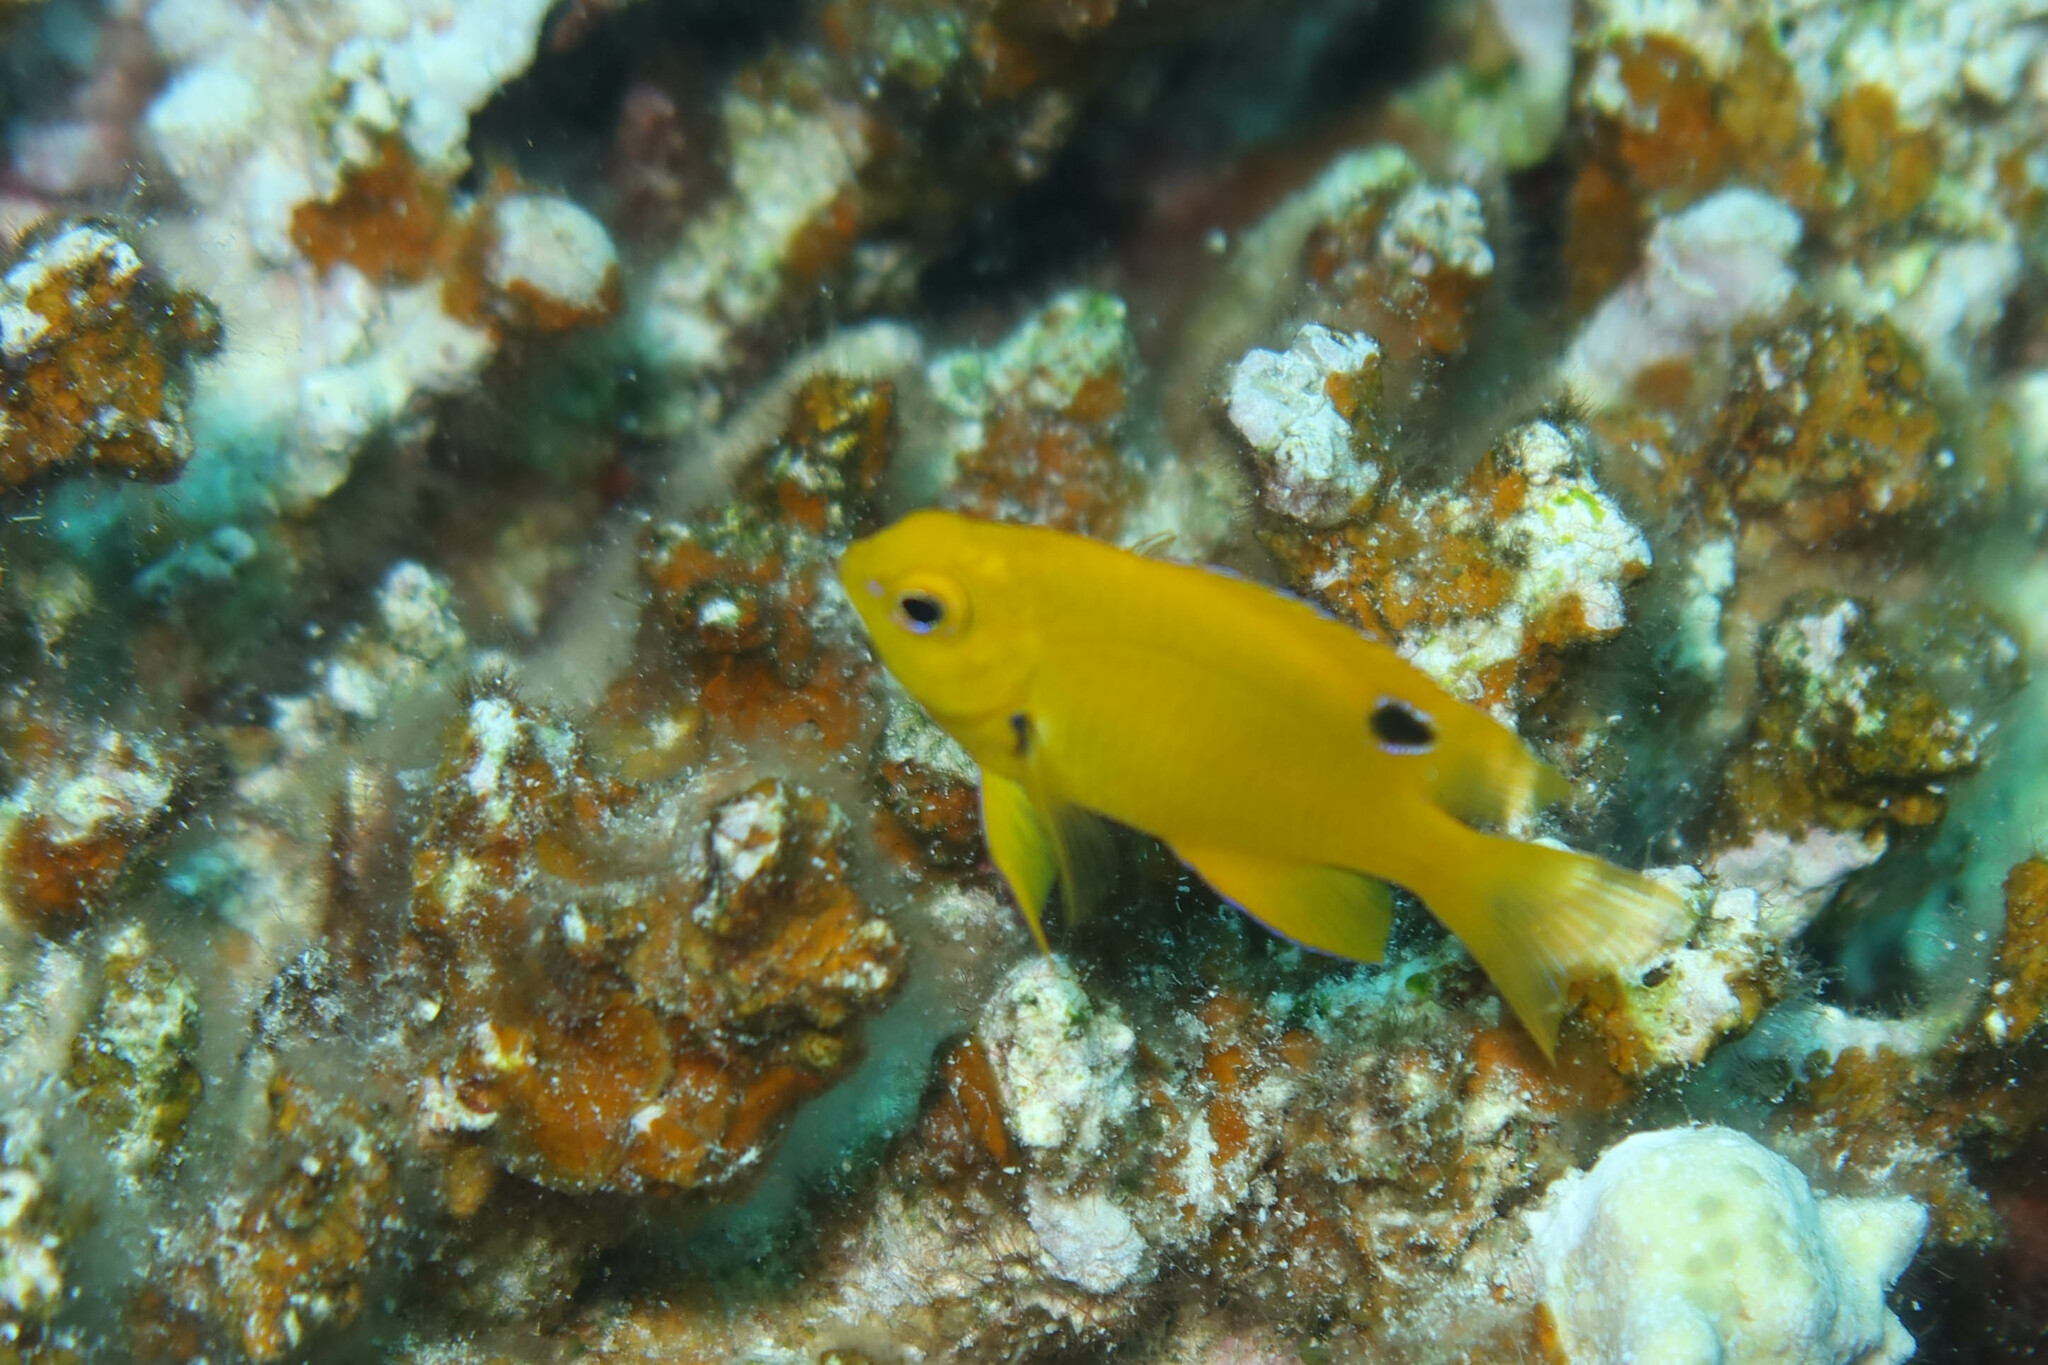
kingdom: Animalia
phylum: Chordata
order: Perciformes
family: Pomacentridae
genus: Pomacentrus
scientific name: Pomacentrus sulfureus
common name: Sulfur damsel
